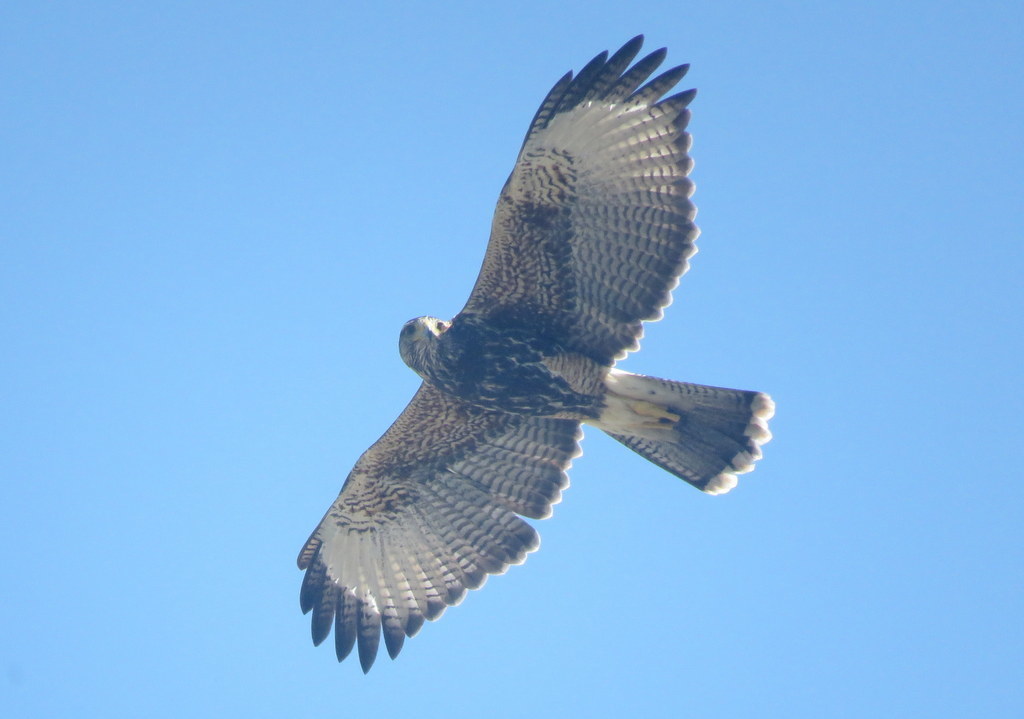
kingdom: Animalia
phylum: Chordata
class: Aves
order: Accipitriformes
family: Accipitridae
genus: Parabuteo
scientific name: Parabuteo unicinctus
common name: Harris's hawk
